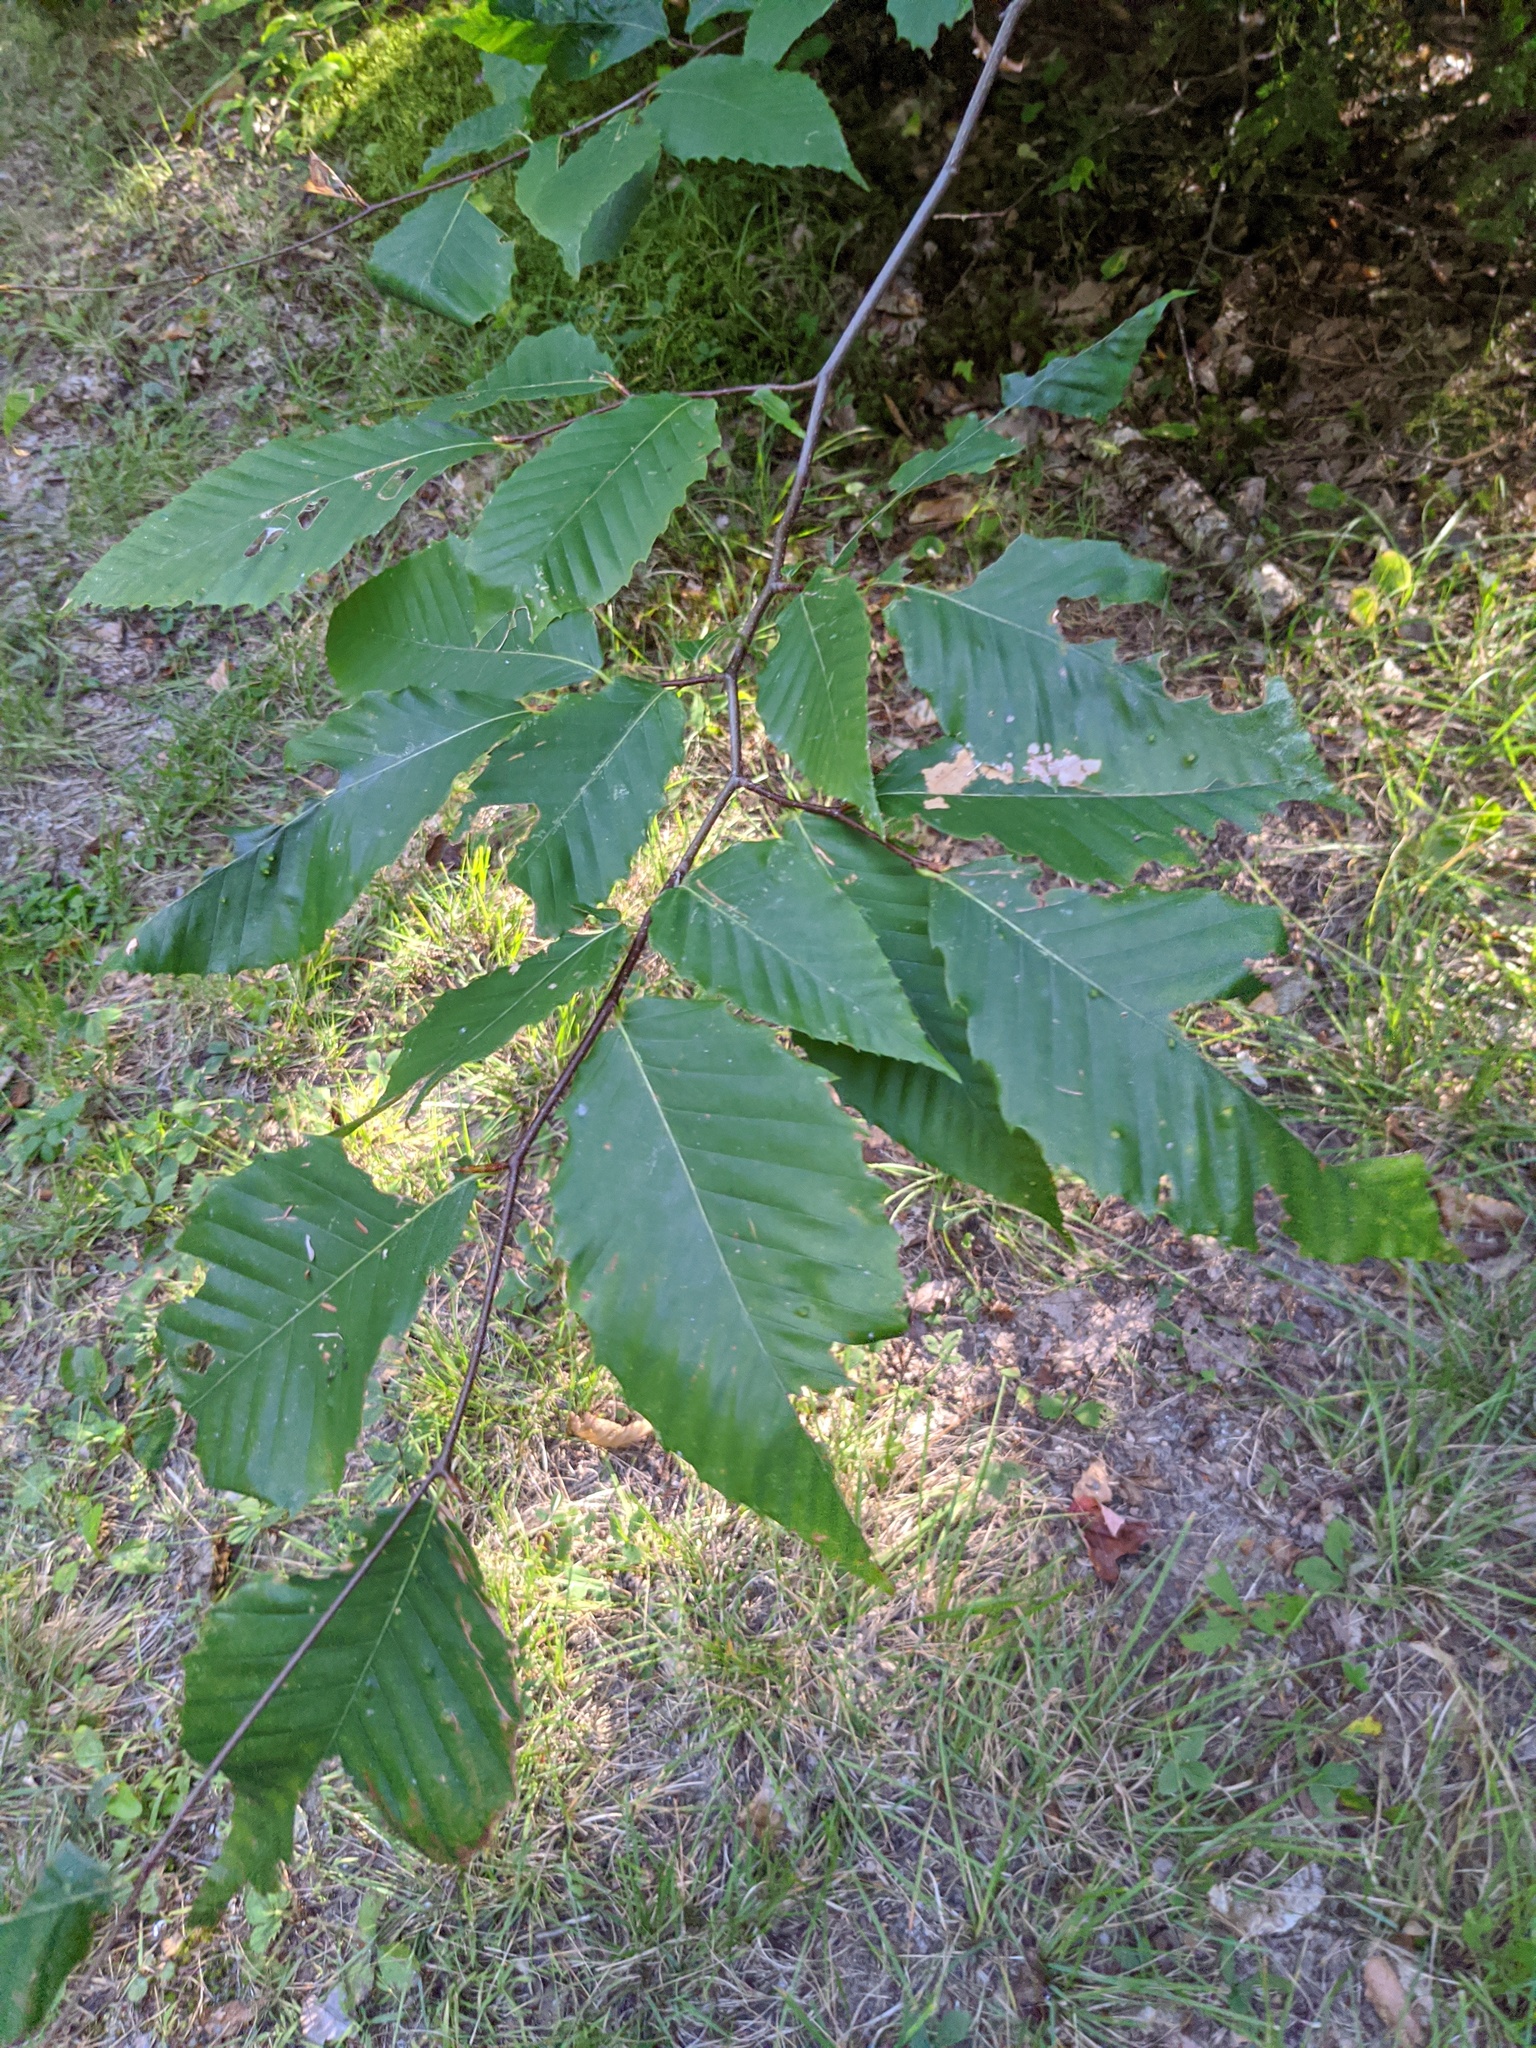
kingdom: Plantae
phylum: Tracheophyta
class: Magnoliopsida
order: Fagales
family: Fagaceae
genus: Fagus
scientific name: Fagus grandifolia
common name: American beech
